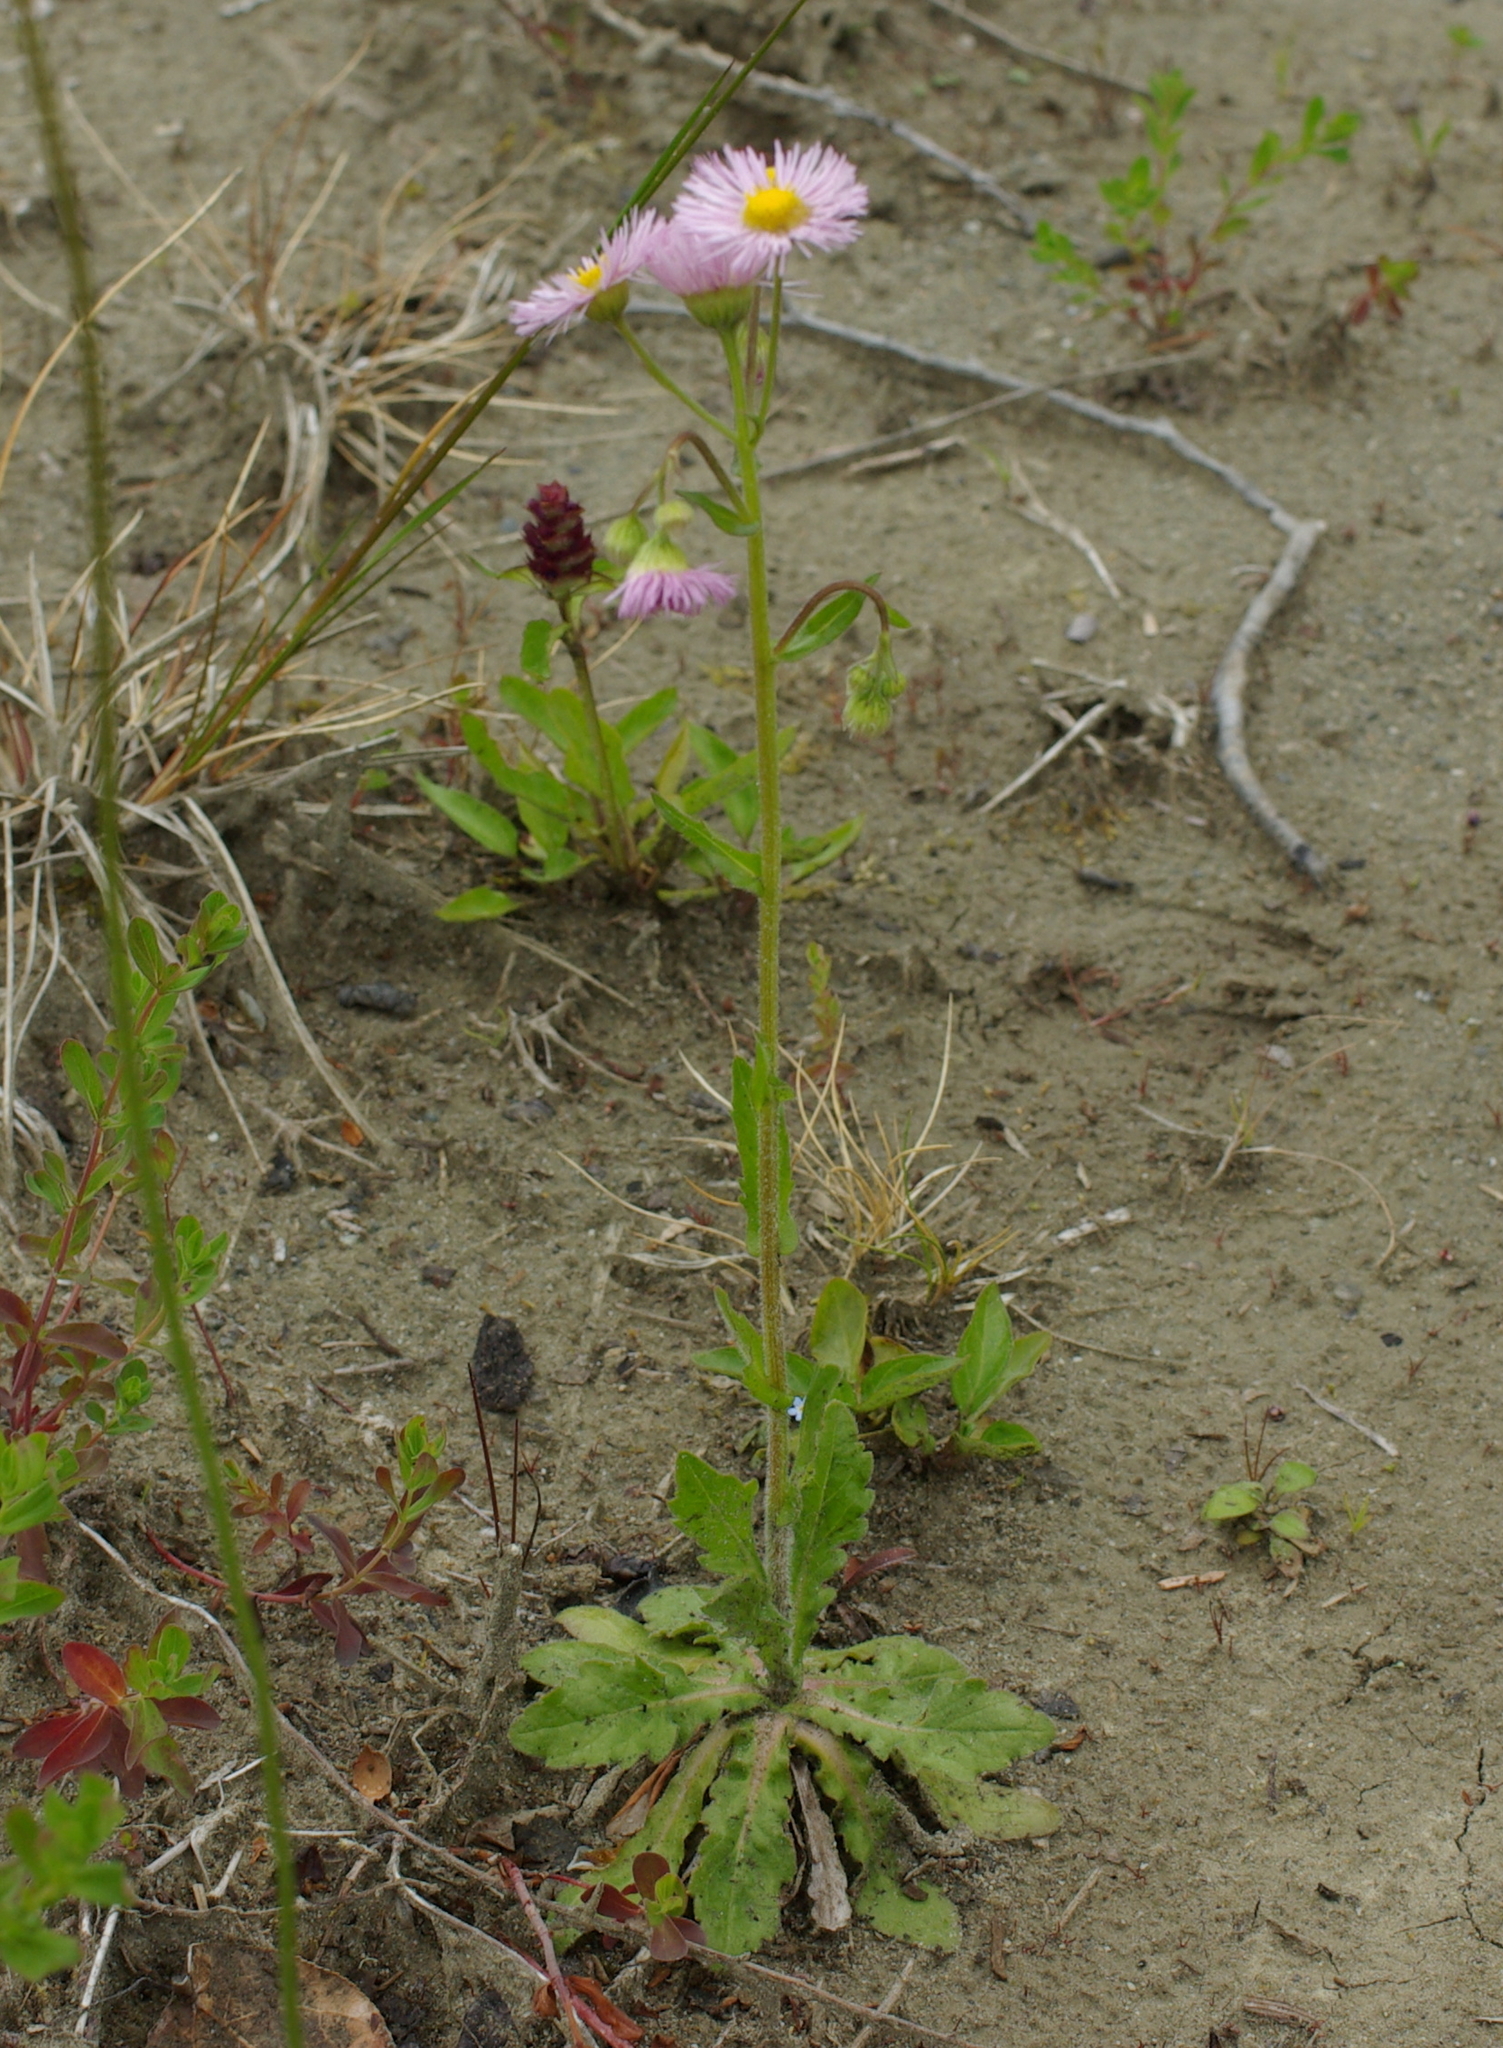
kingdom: Plantae
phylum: Tracheophyta
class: Magnoliopsida
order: Asterales
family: Asteraceae
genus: Erigeron
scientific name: Erigeron philadelphicus
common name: Robin's-plantain
